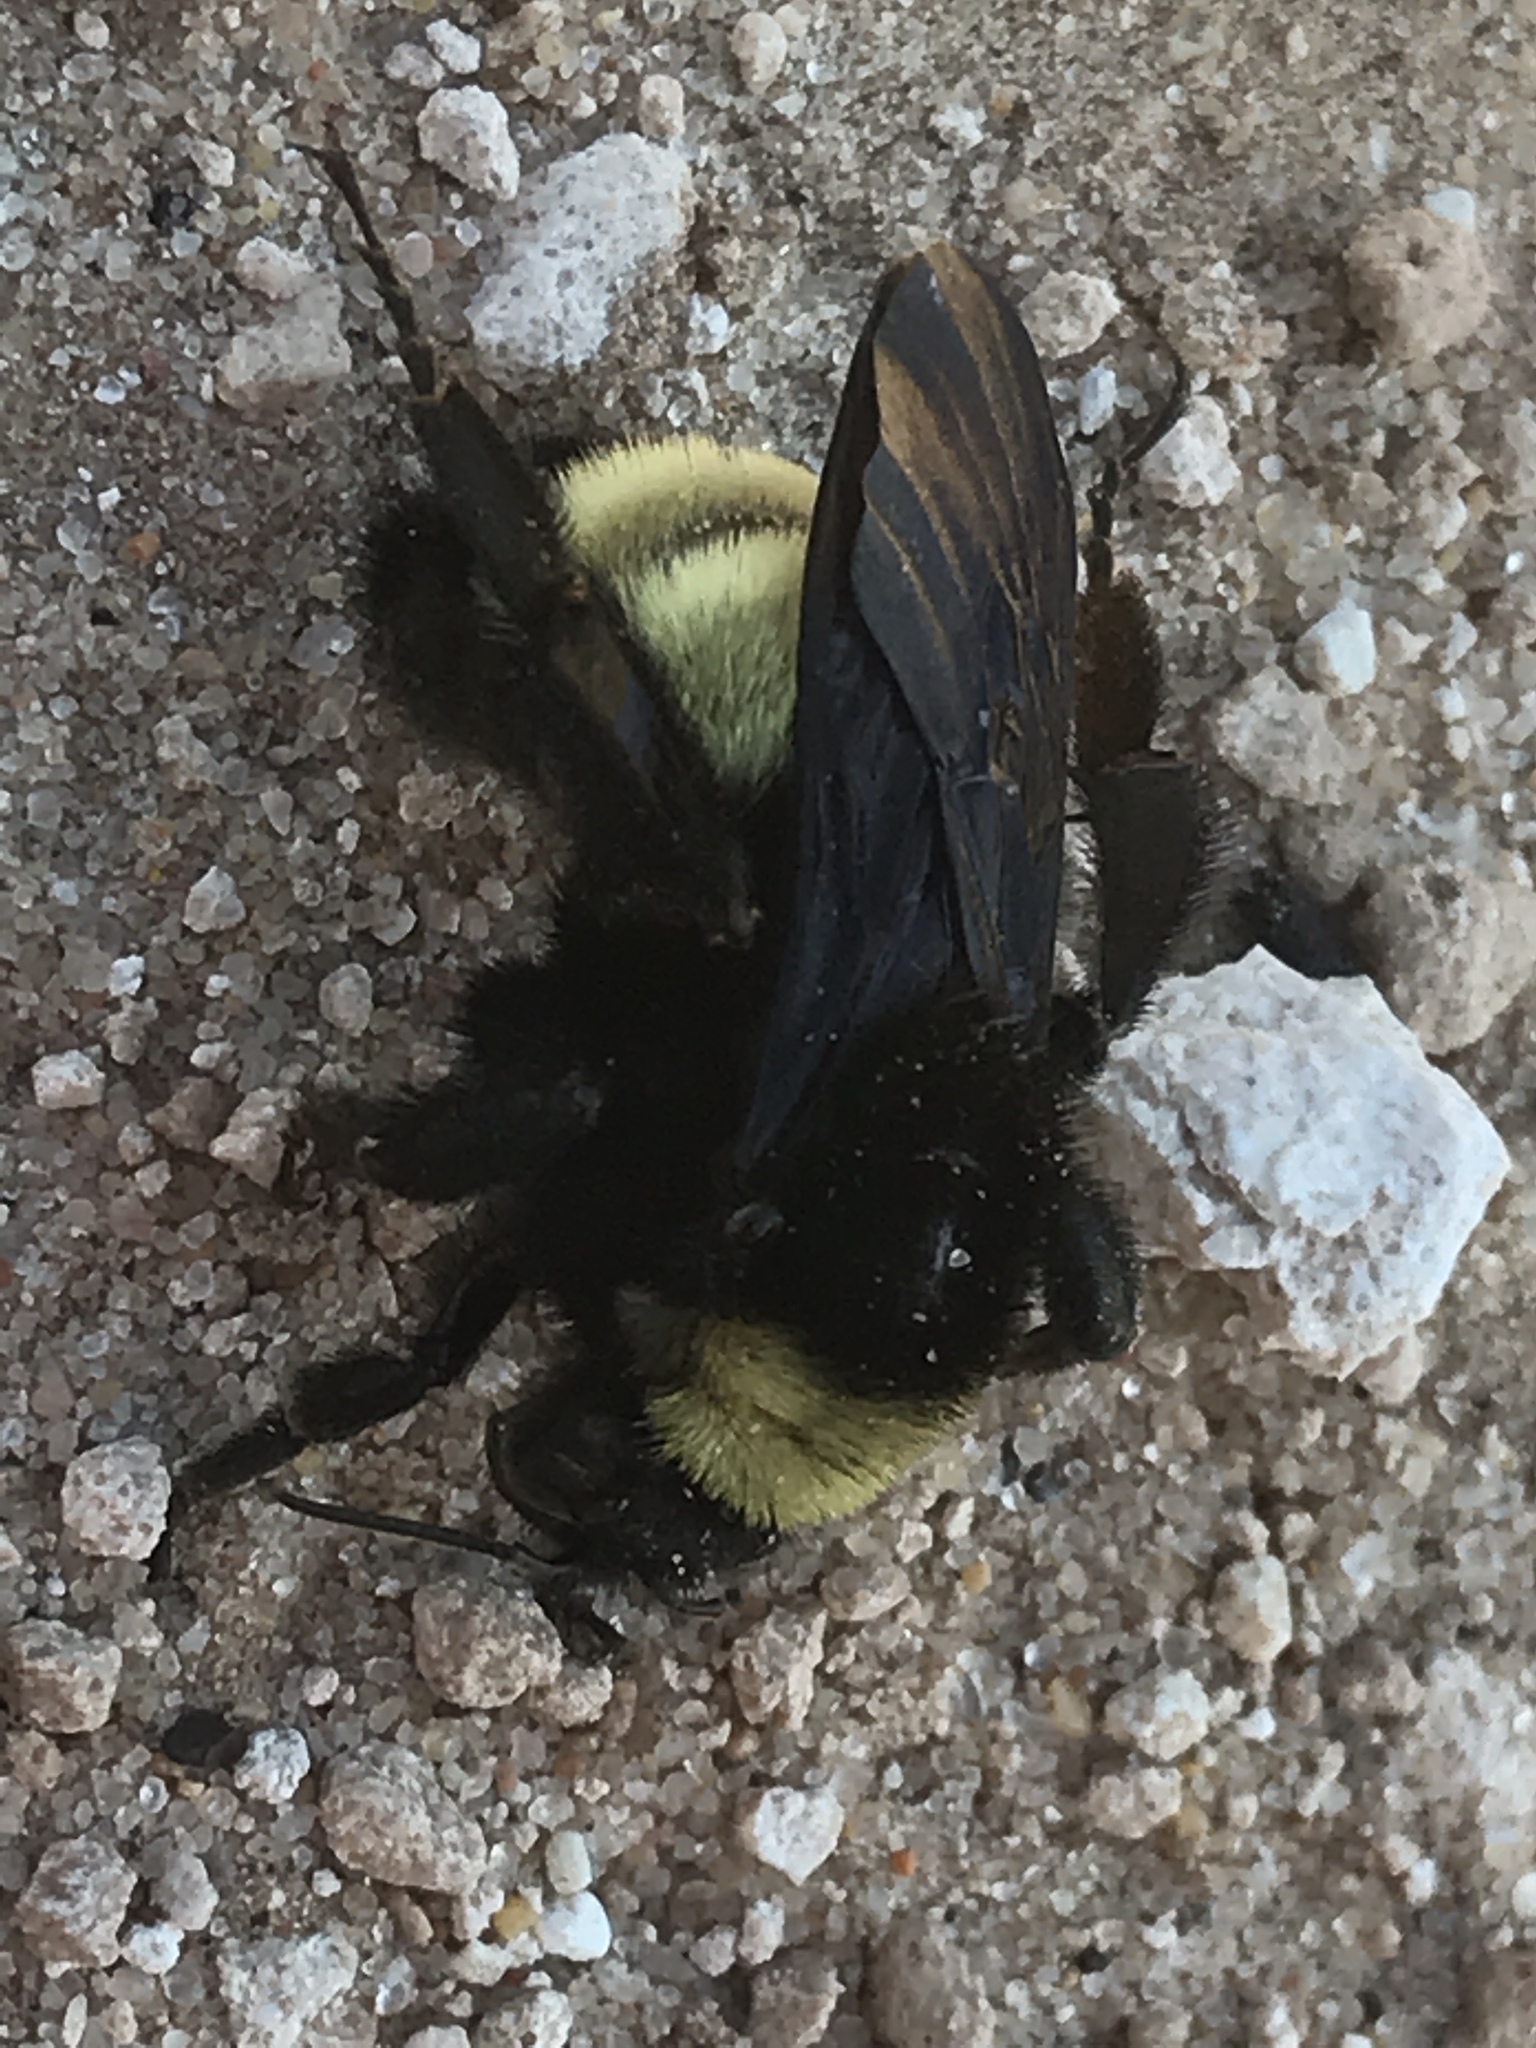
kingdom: Animalia
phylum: Arthropoda
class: Insecta
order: Hymenoptera
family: Apidae
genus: Bombus
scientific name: Bombus pensylvanicus
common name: Bumble bee
